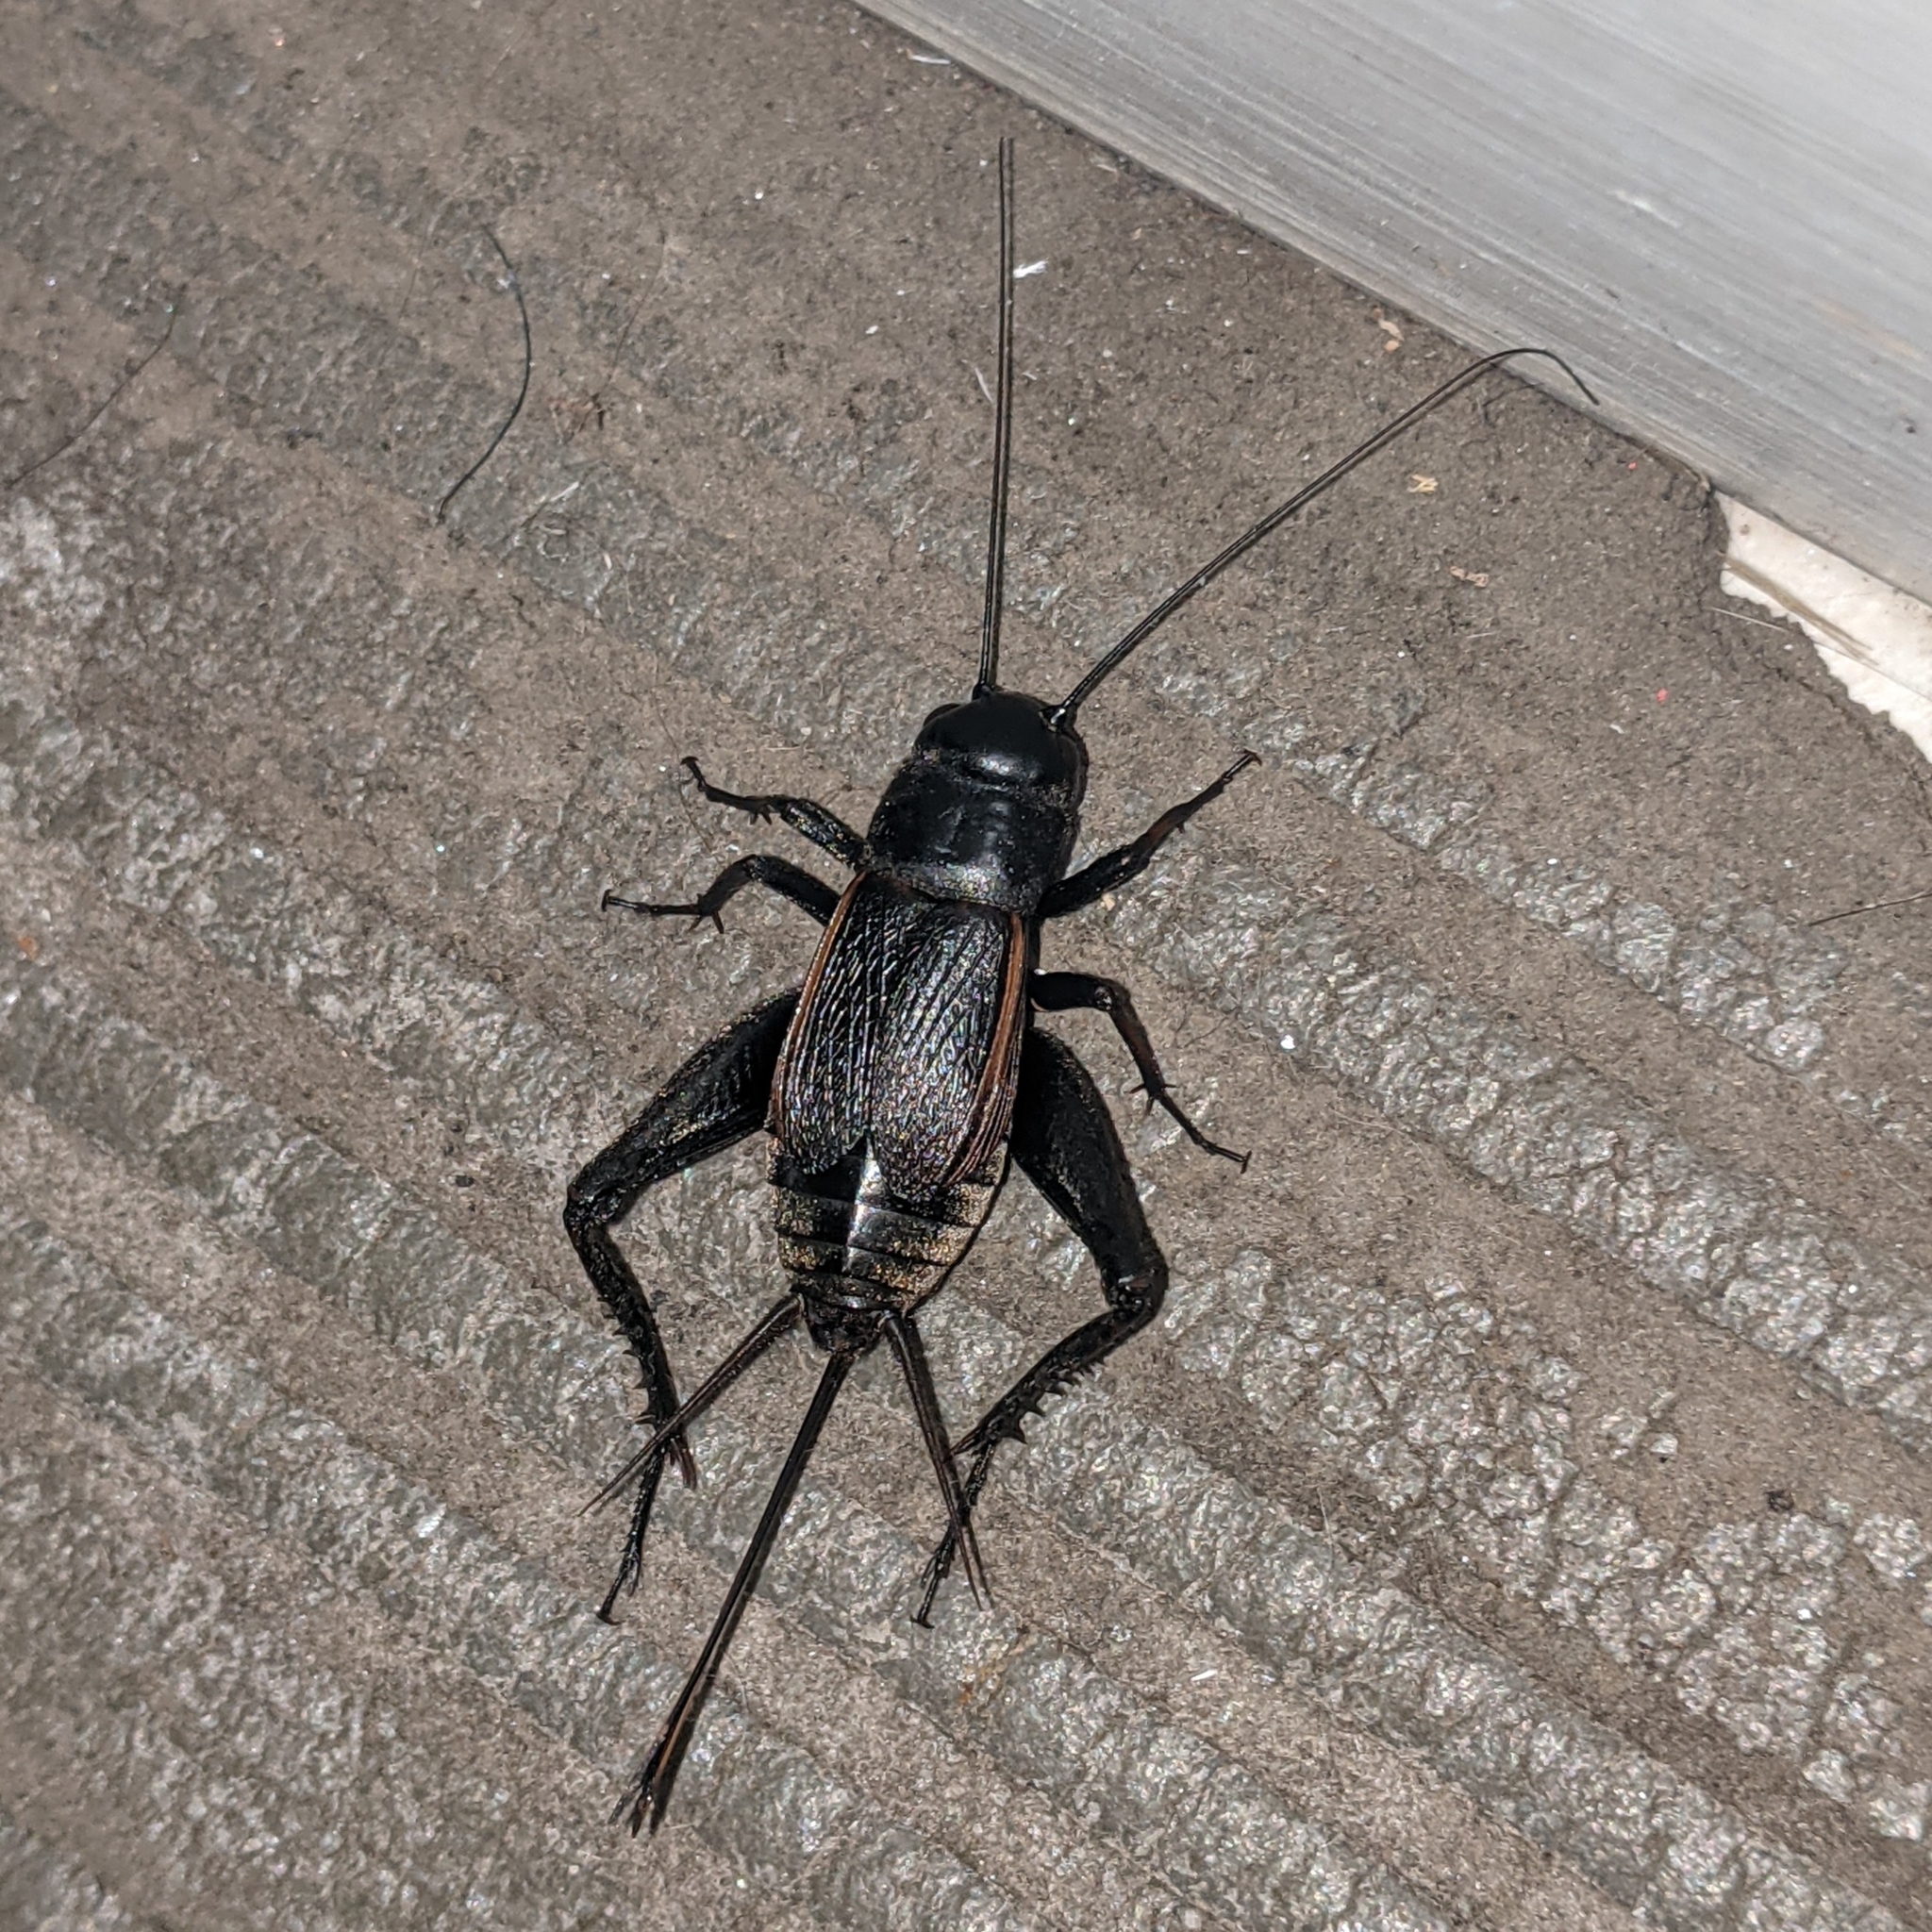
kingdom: Animalia
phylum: Arthropoda
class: Insecta
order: Orthoptera
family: Gryllidae
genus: Gryllus
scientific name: Gryllus pennsylvanicus
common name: Fall field cricket
